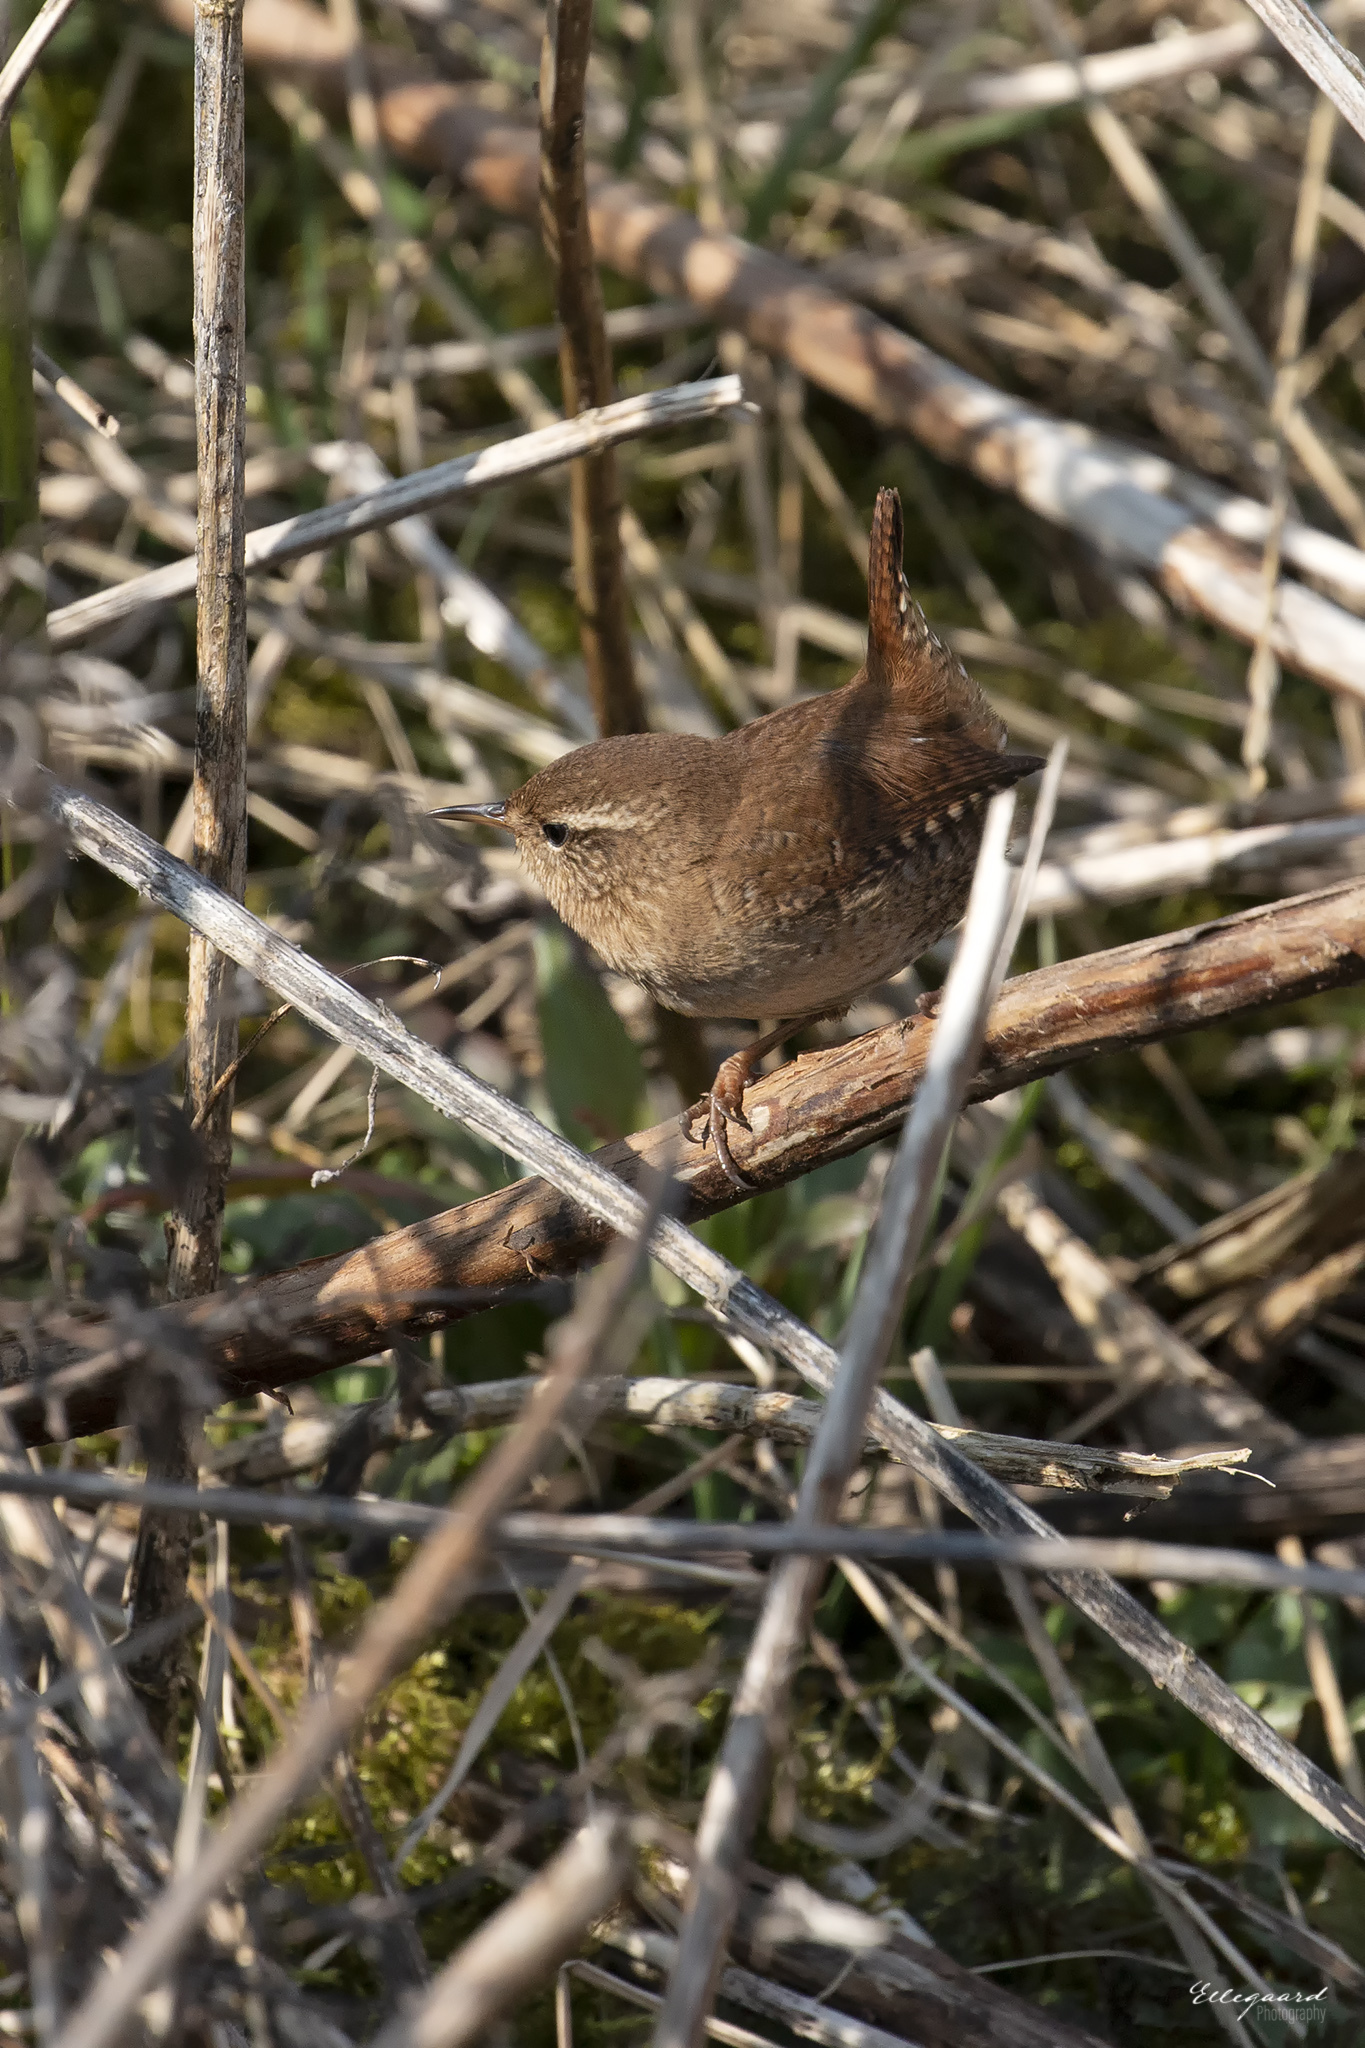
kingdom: Animalia
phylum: Chordata
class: Aves
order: Passeriformes
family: Troglodytidae
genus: Troglodytes
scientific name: Troglodytes troglodytes
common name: Eurasian wren
